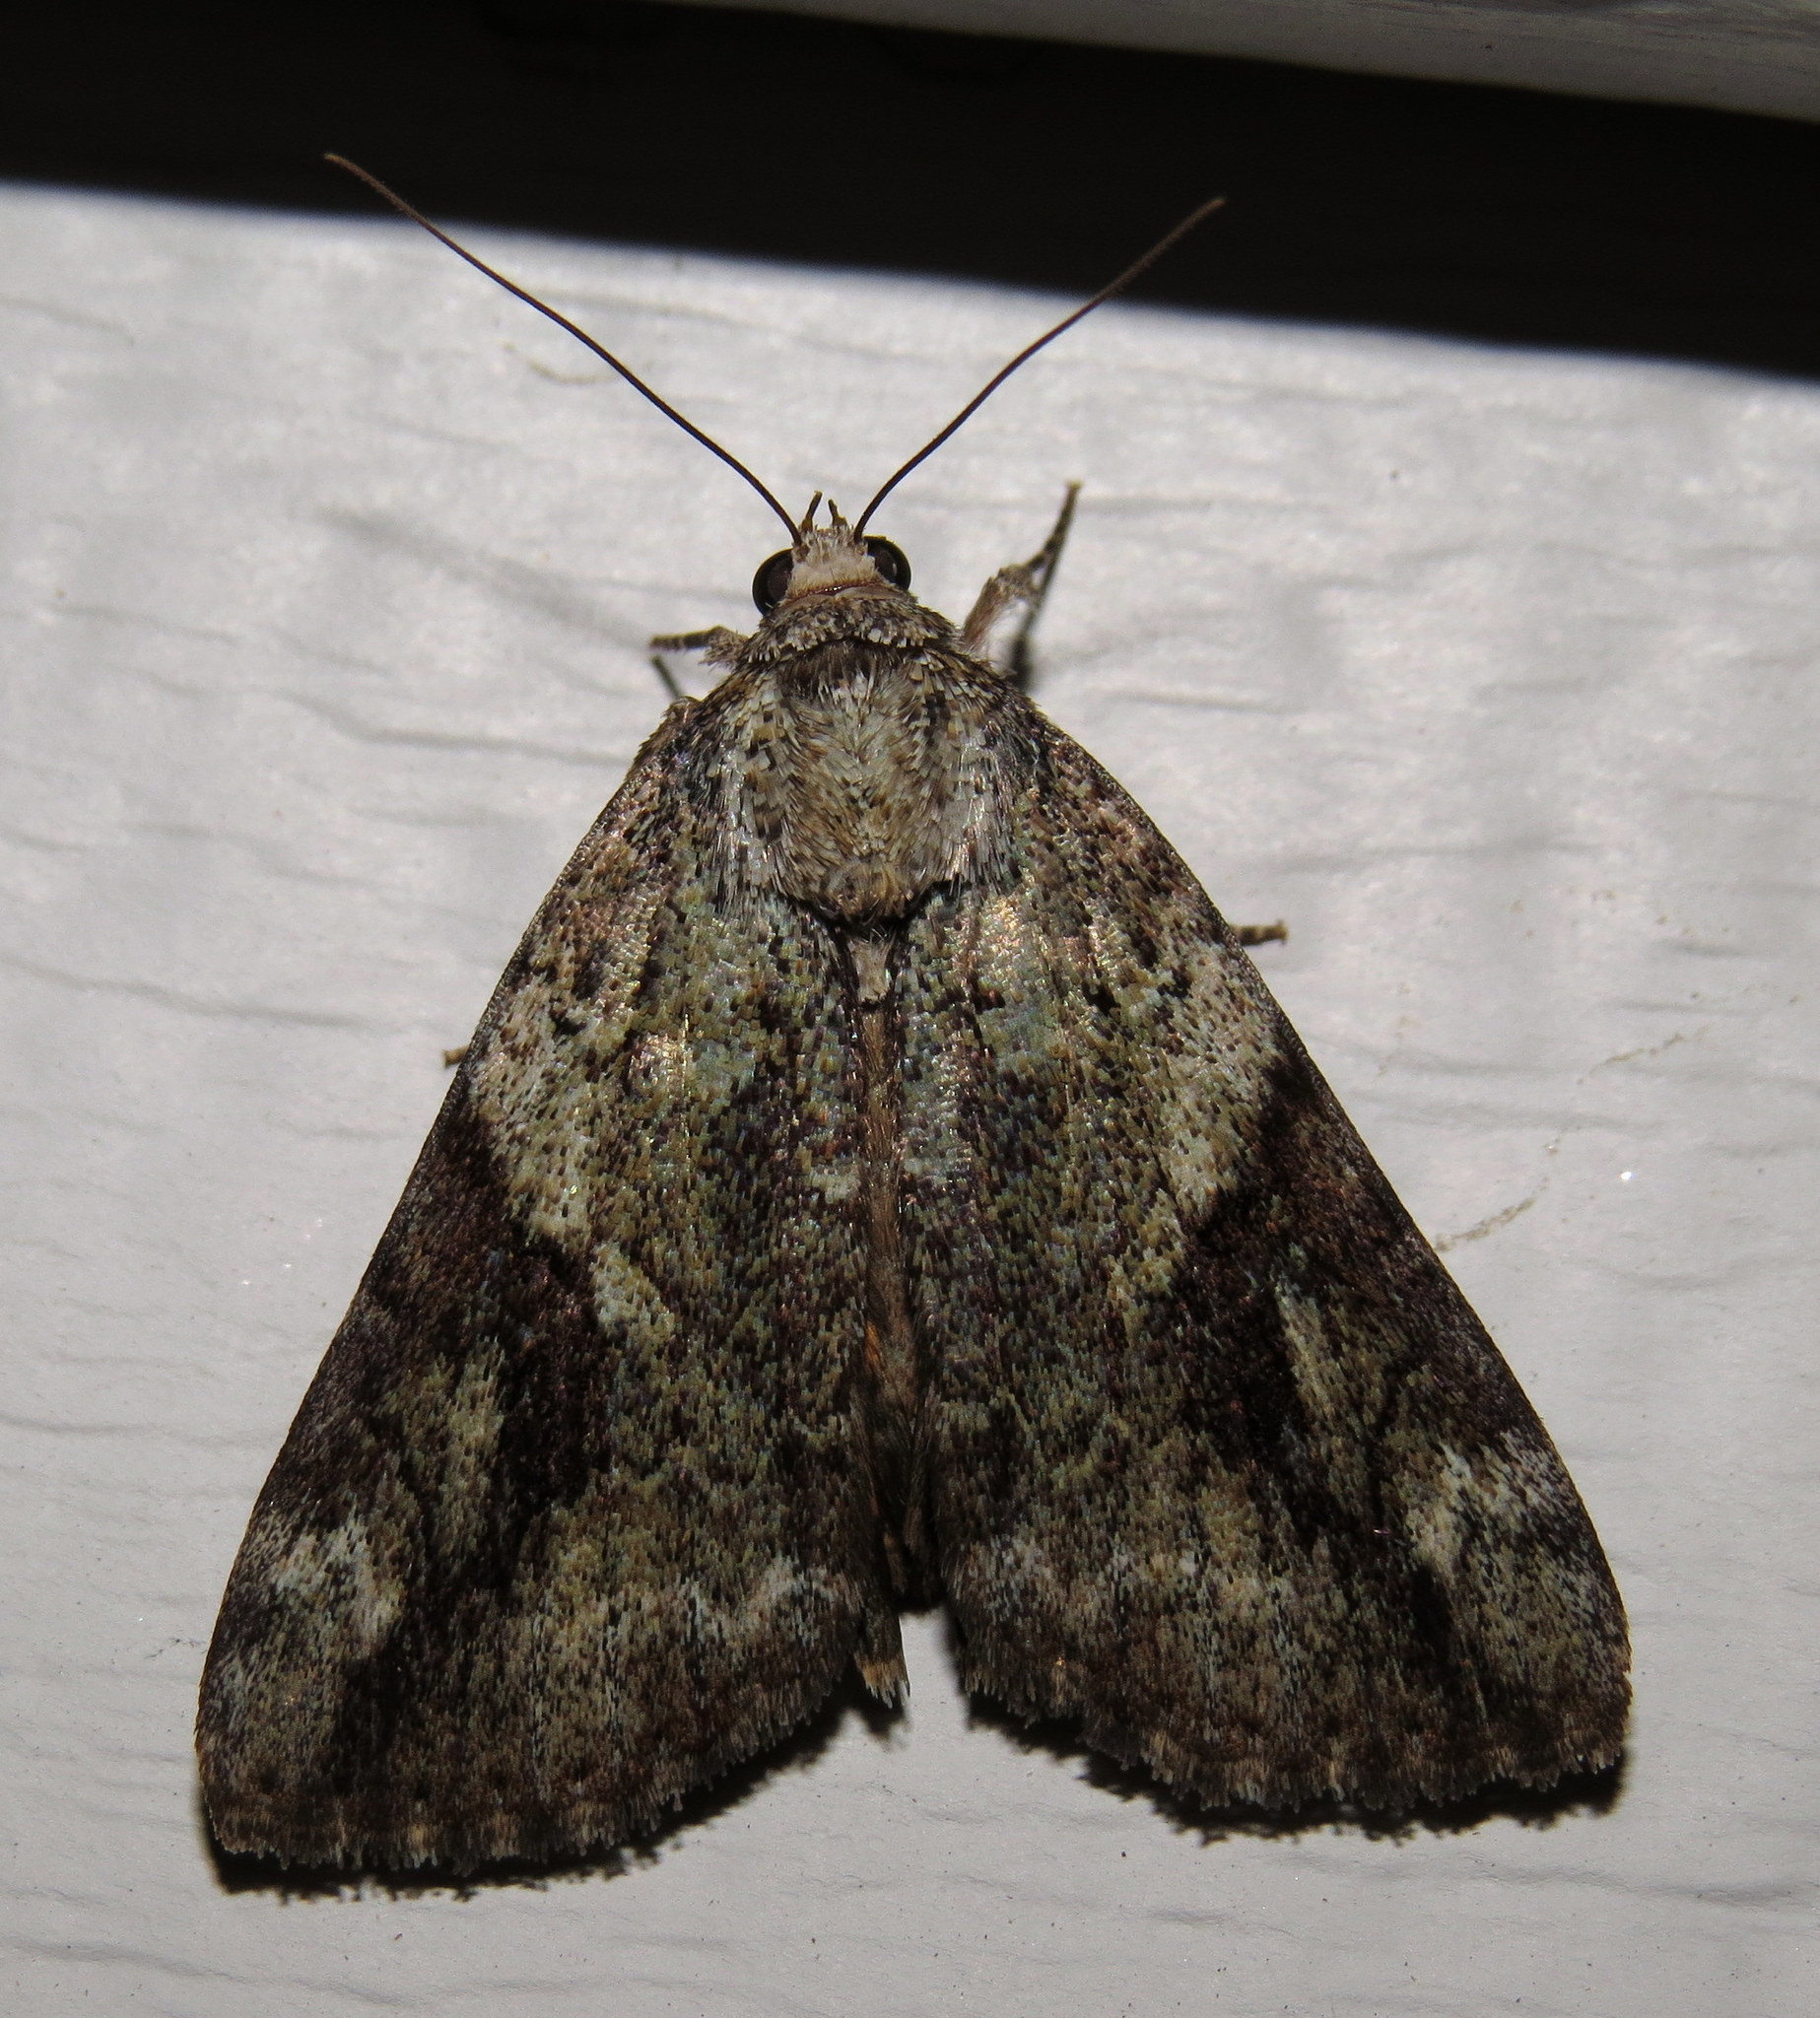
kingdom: Animalia
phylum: Arthropoda
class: Insecta
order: Lepidoptera
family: Erebidae
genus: Catocala
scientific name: Catocala micronympha
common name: Little nymph underwing
